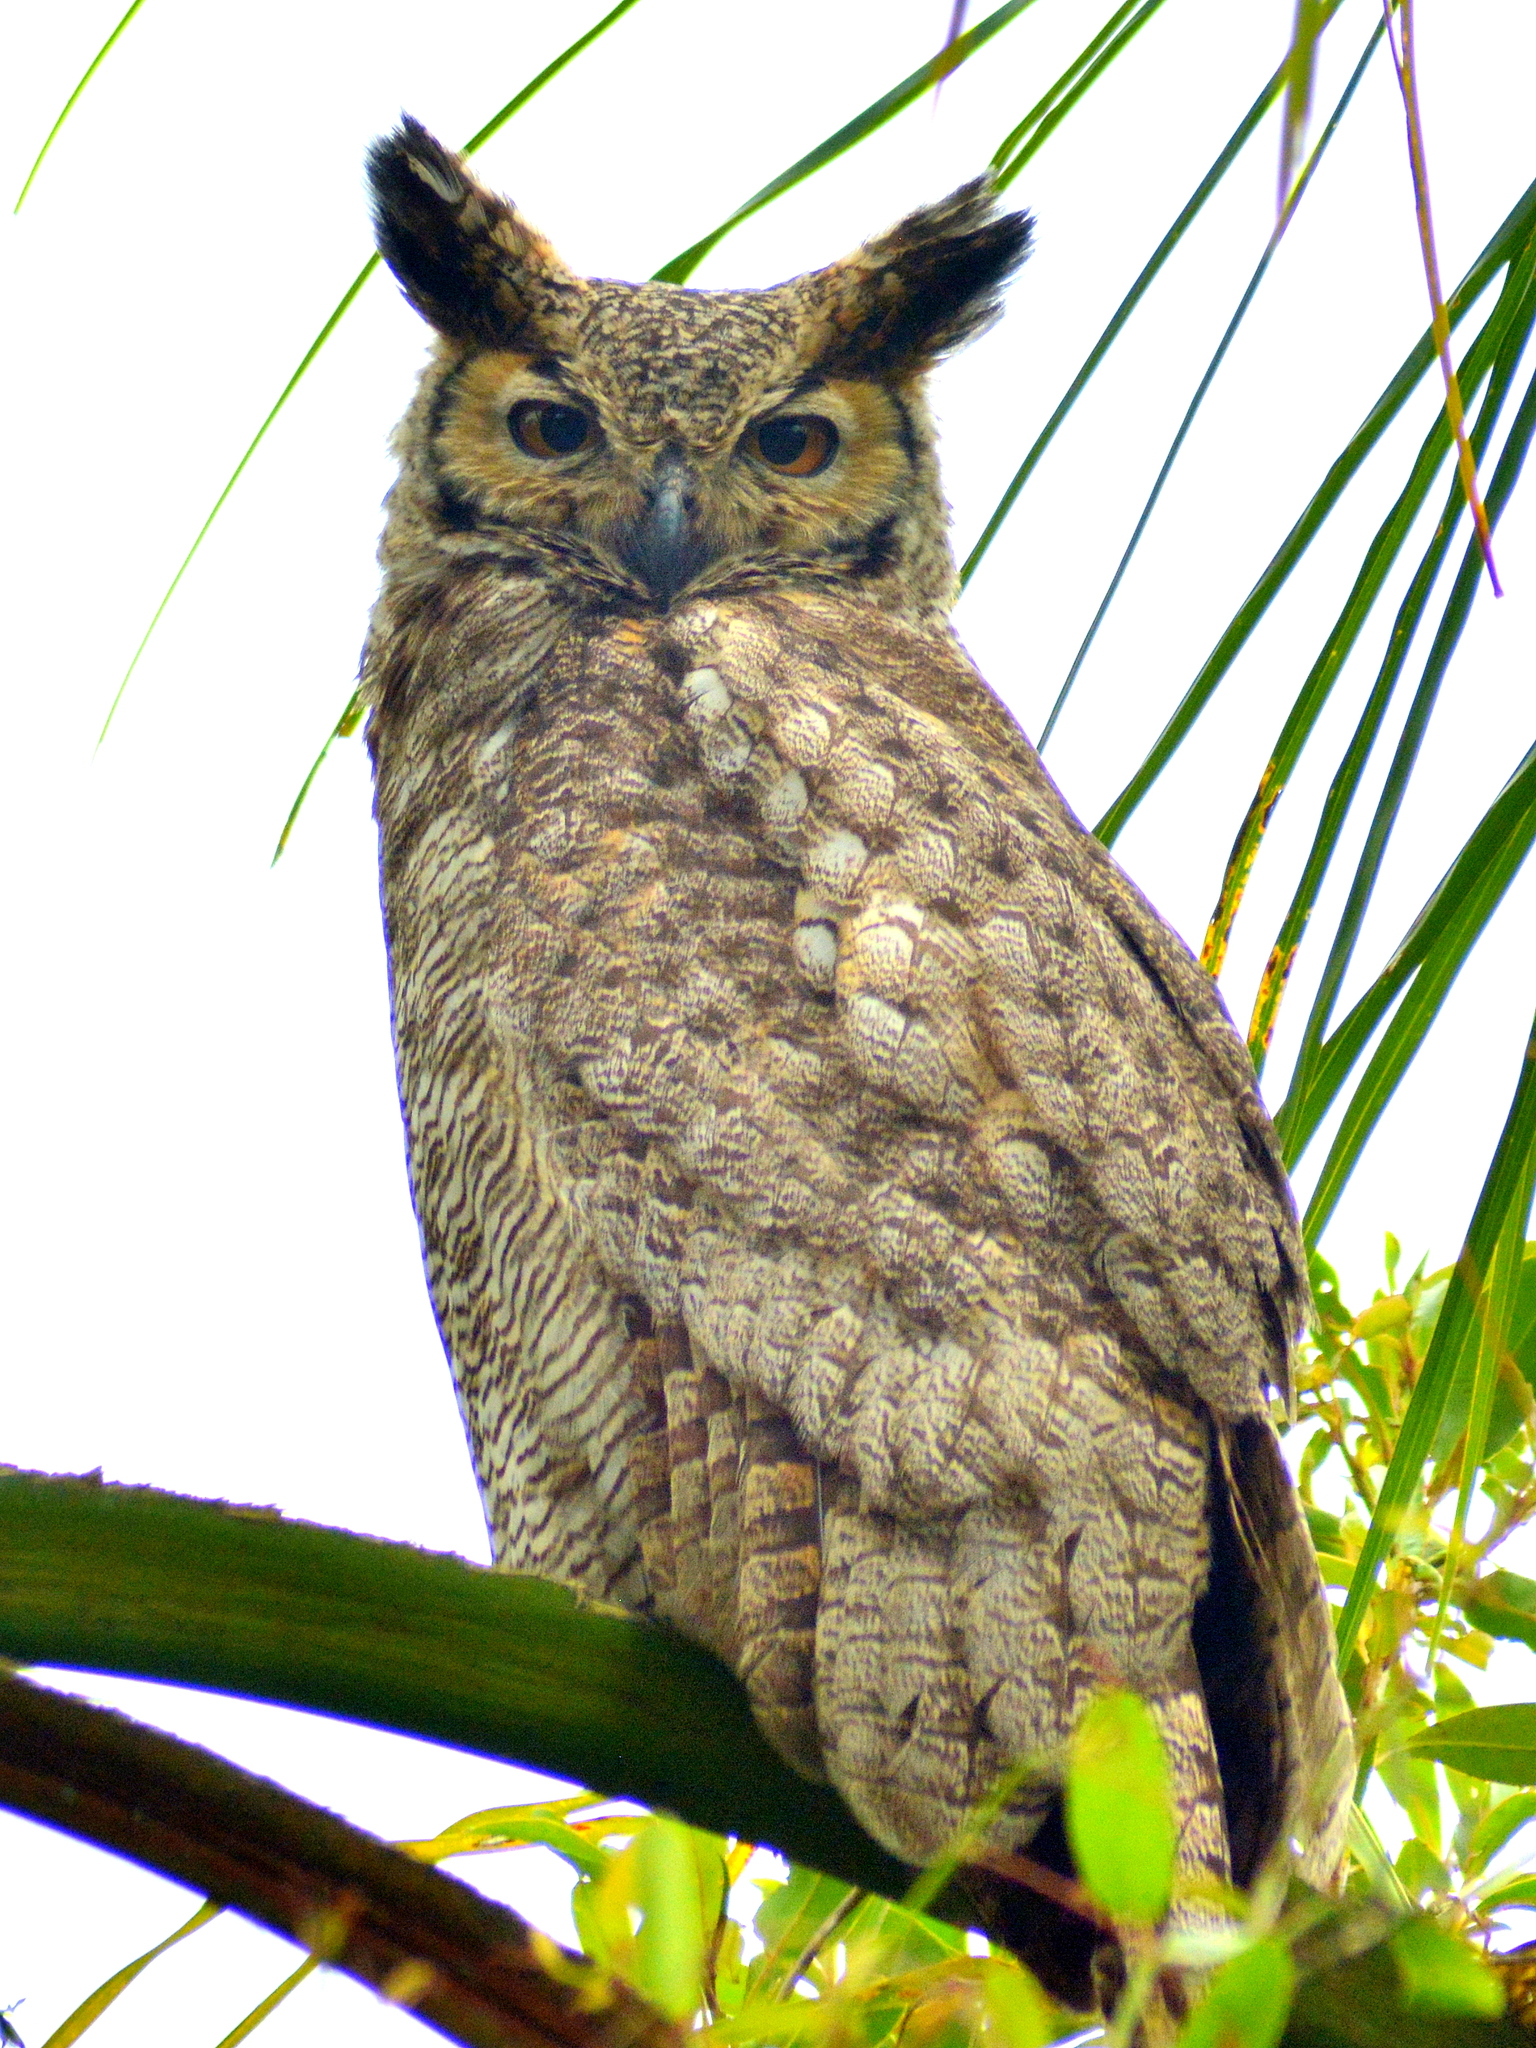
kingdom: Animalia
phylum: Chordata
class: Aves
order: Strigiformes
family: Strigidae
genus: Bubo
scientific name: Bubo virginianus
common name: Great horned owl
